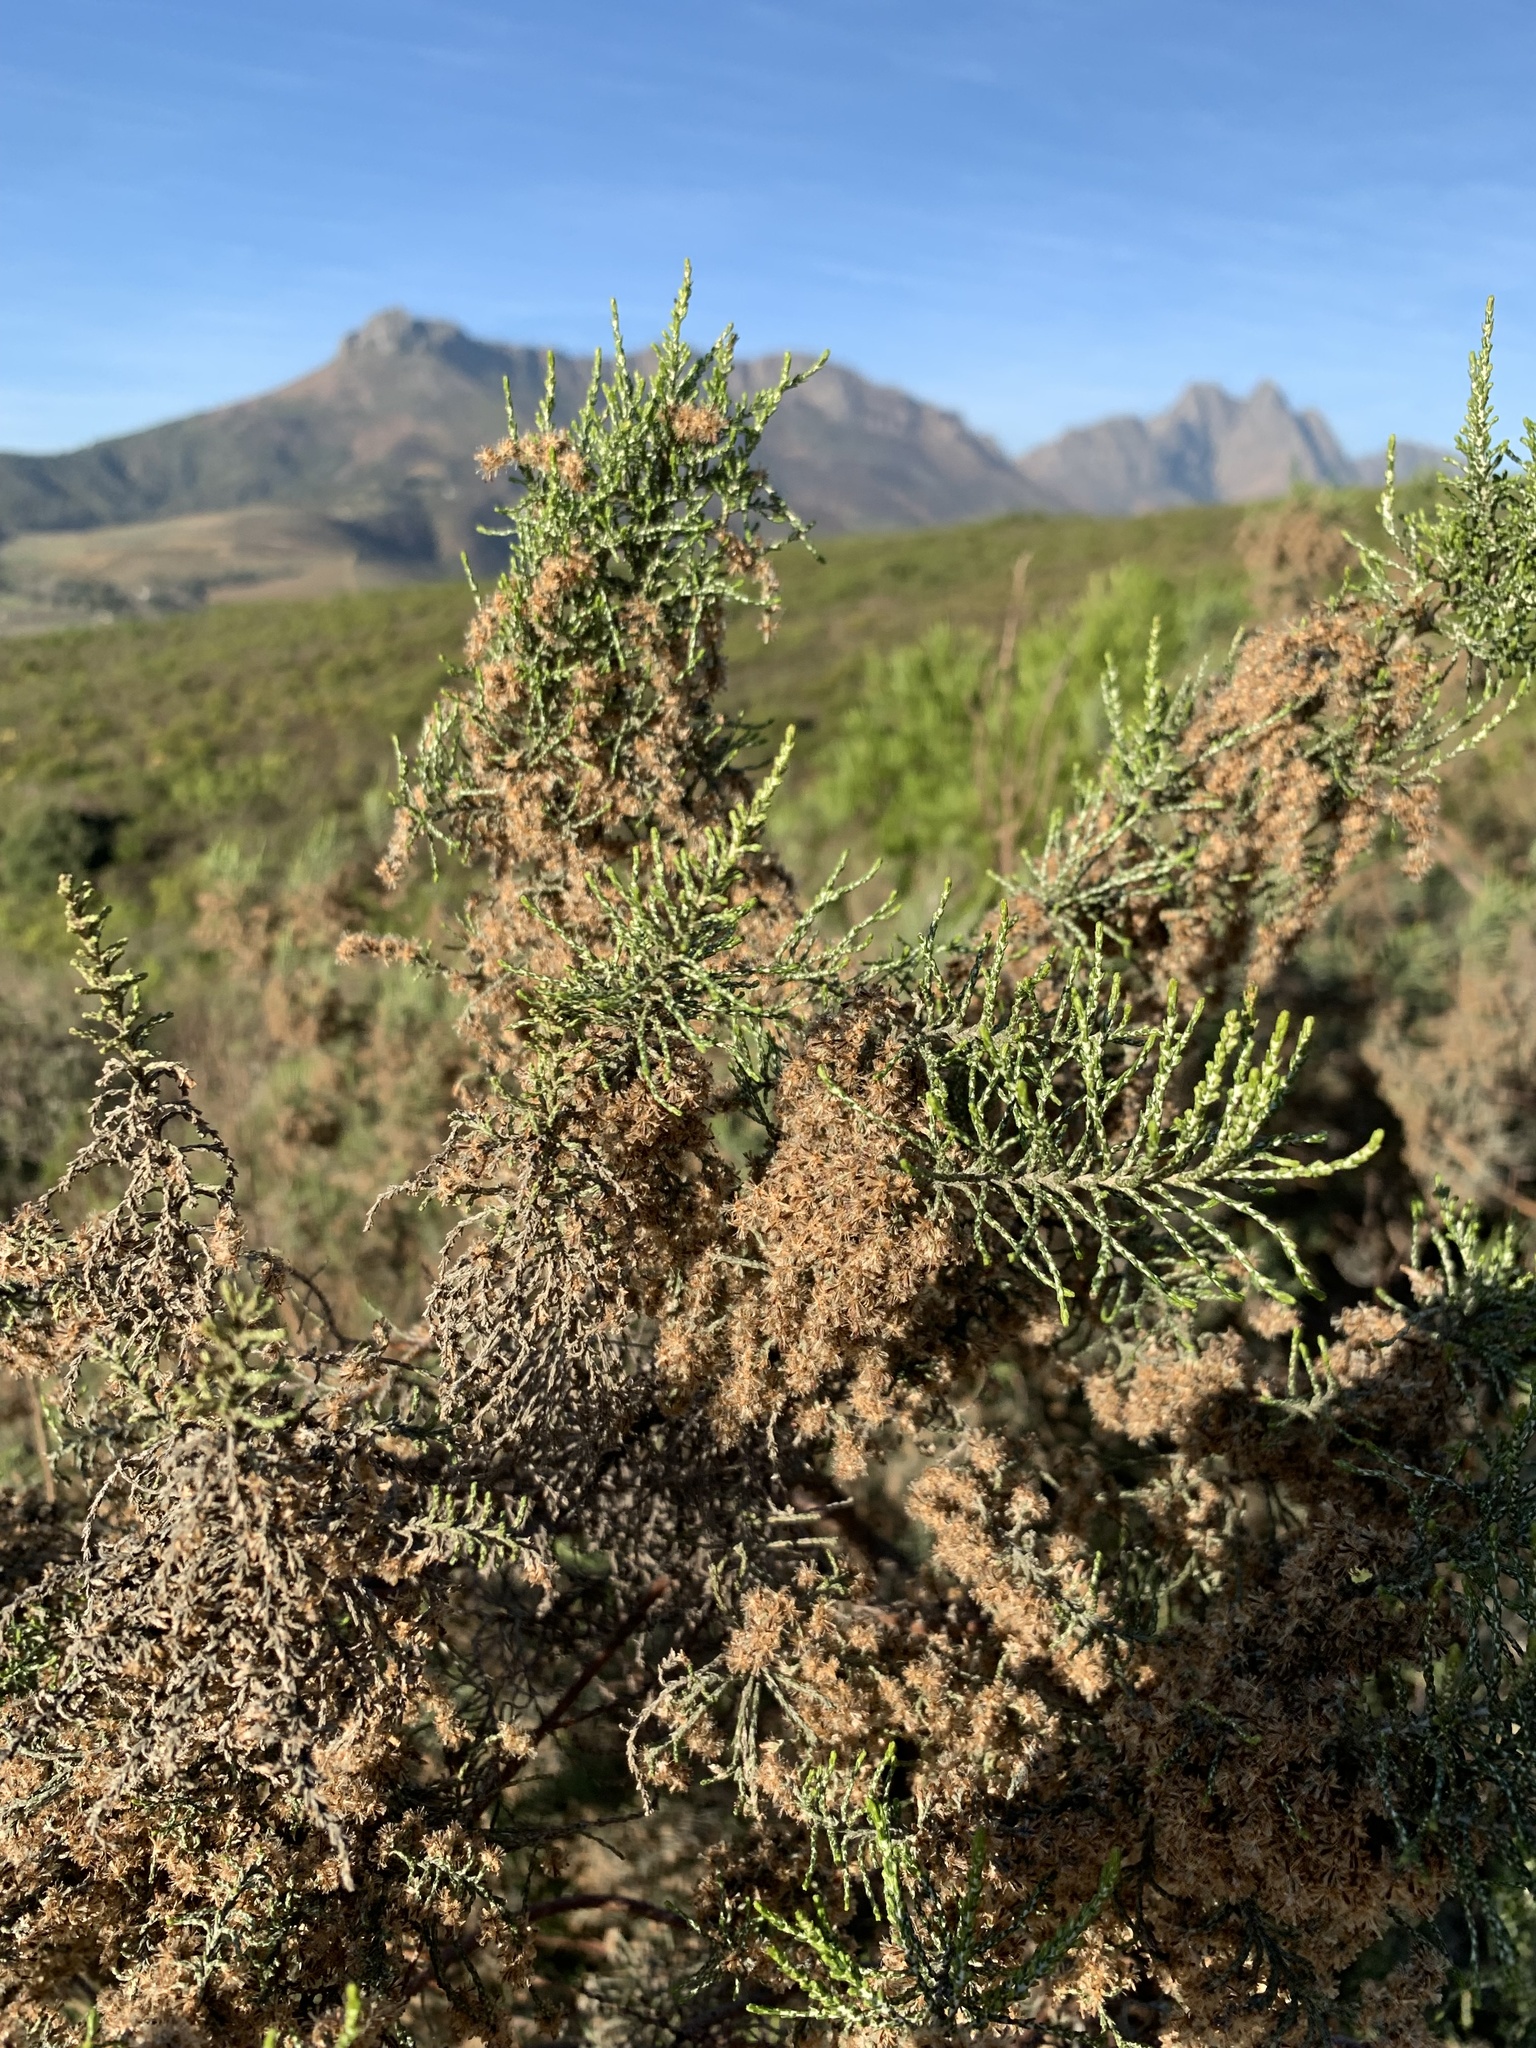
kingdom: Plantae
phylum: Tracheophyta
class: Magnoliopsida
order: Asterales
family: Asteraceae
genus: Dicerothamnus
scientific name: Dicerothamnus rhinocerotis
